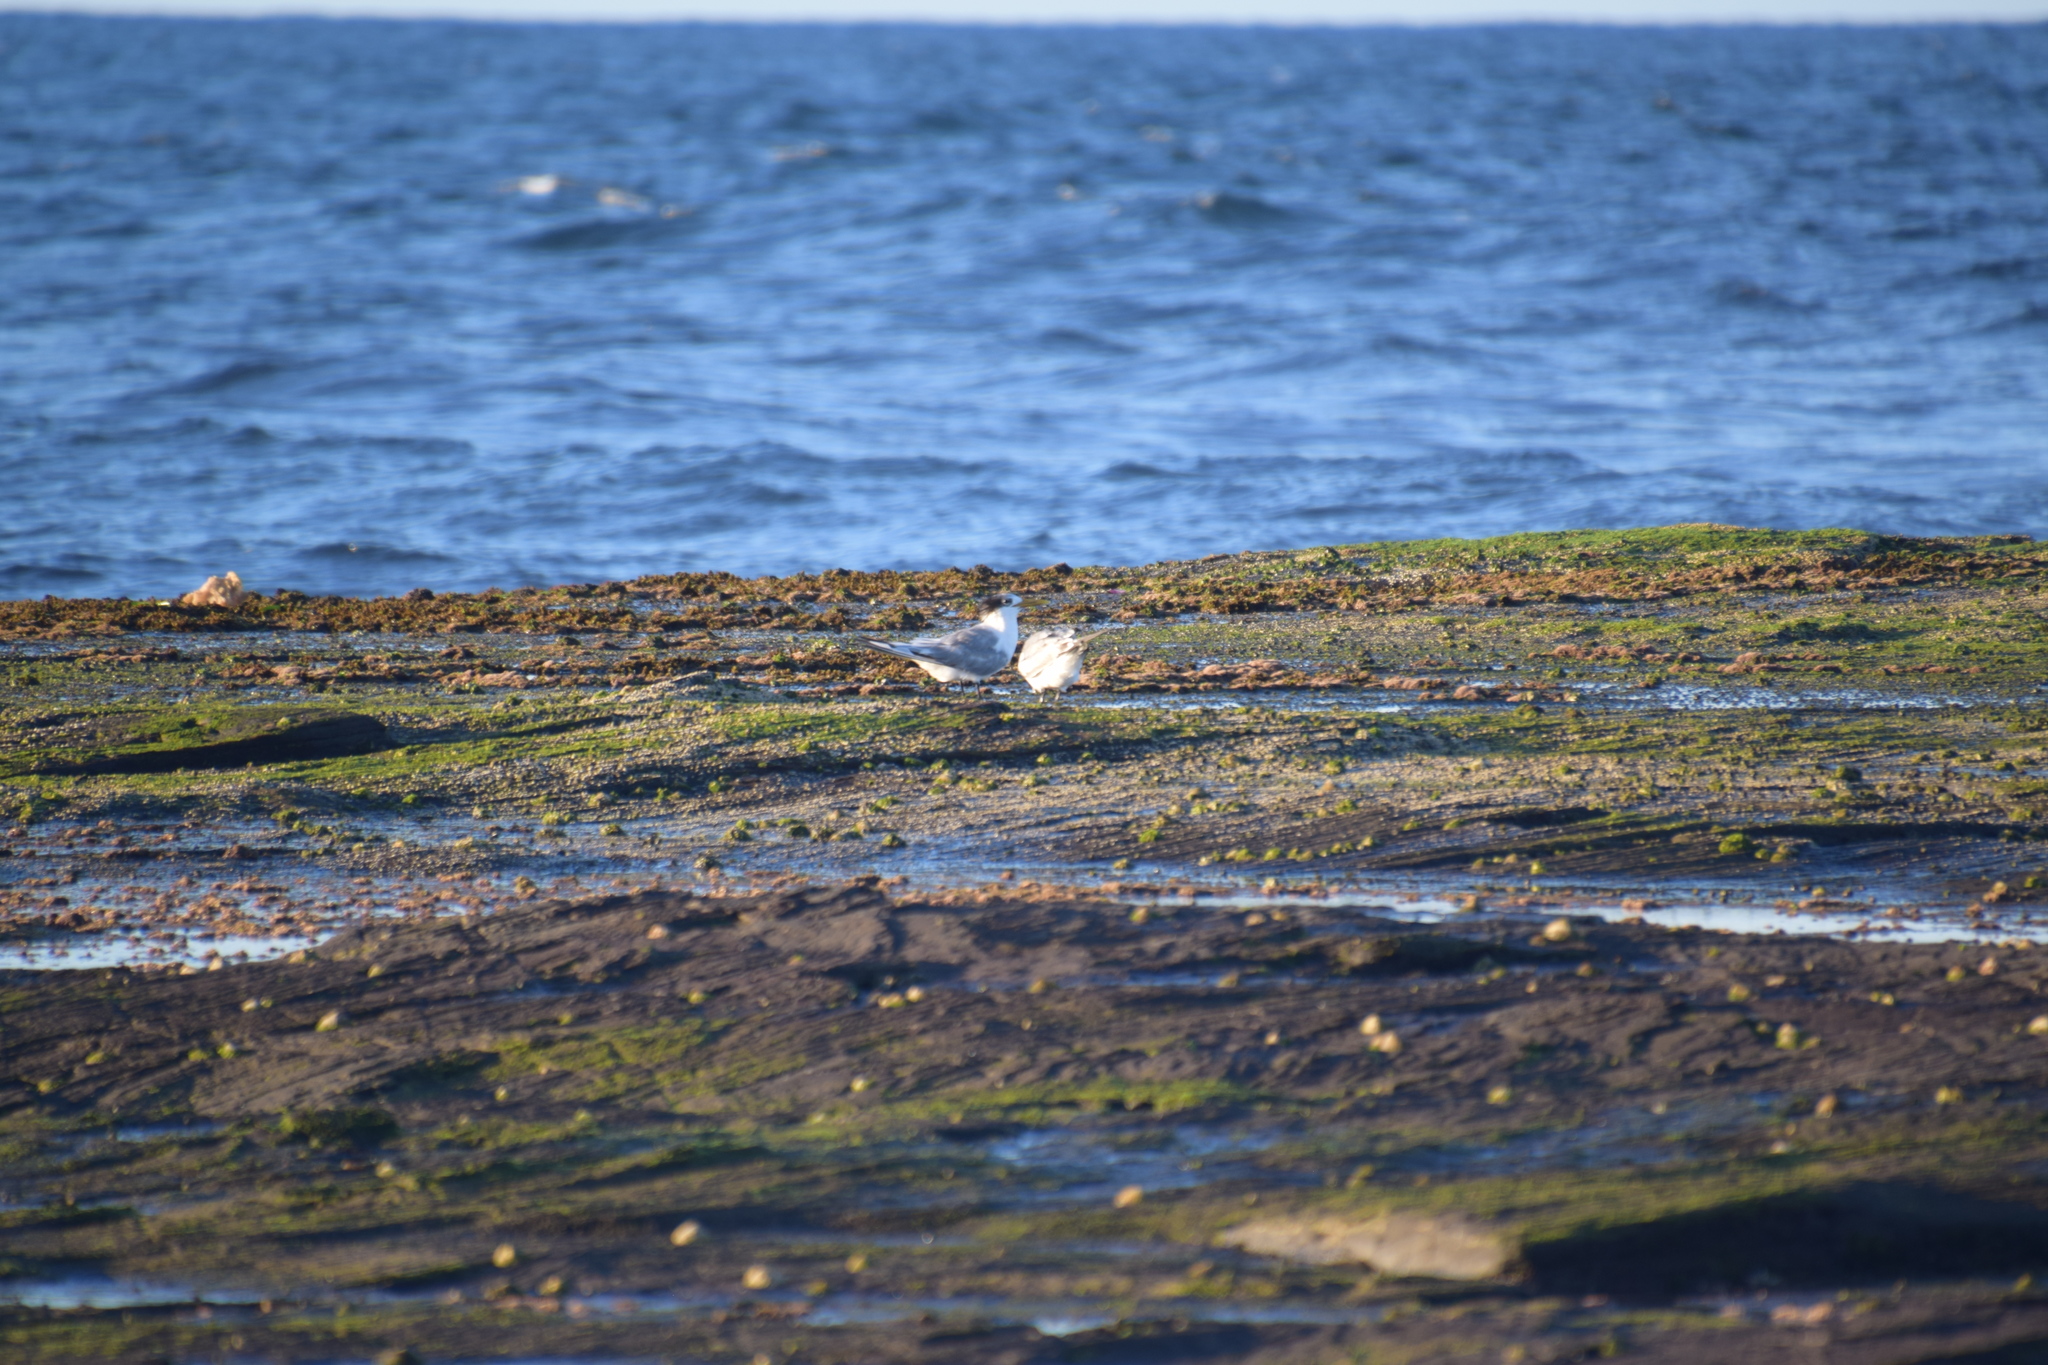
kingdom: Animalia
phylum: Chordata
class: Aves
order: Charadriiformes
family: Laridae
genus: Thalasseus
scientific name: Thalasseus bergii
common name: Greater crested tern
